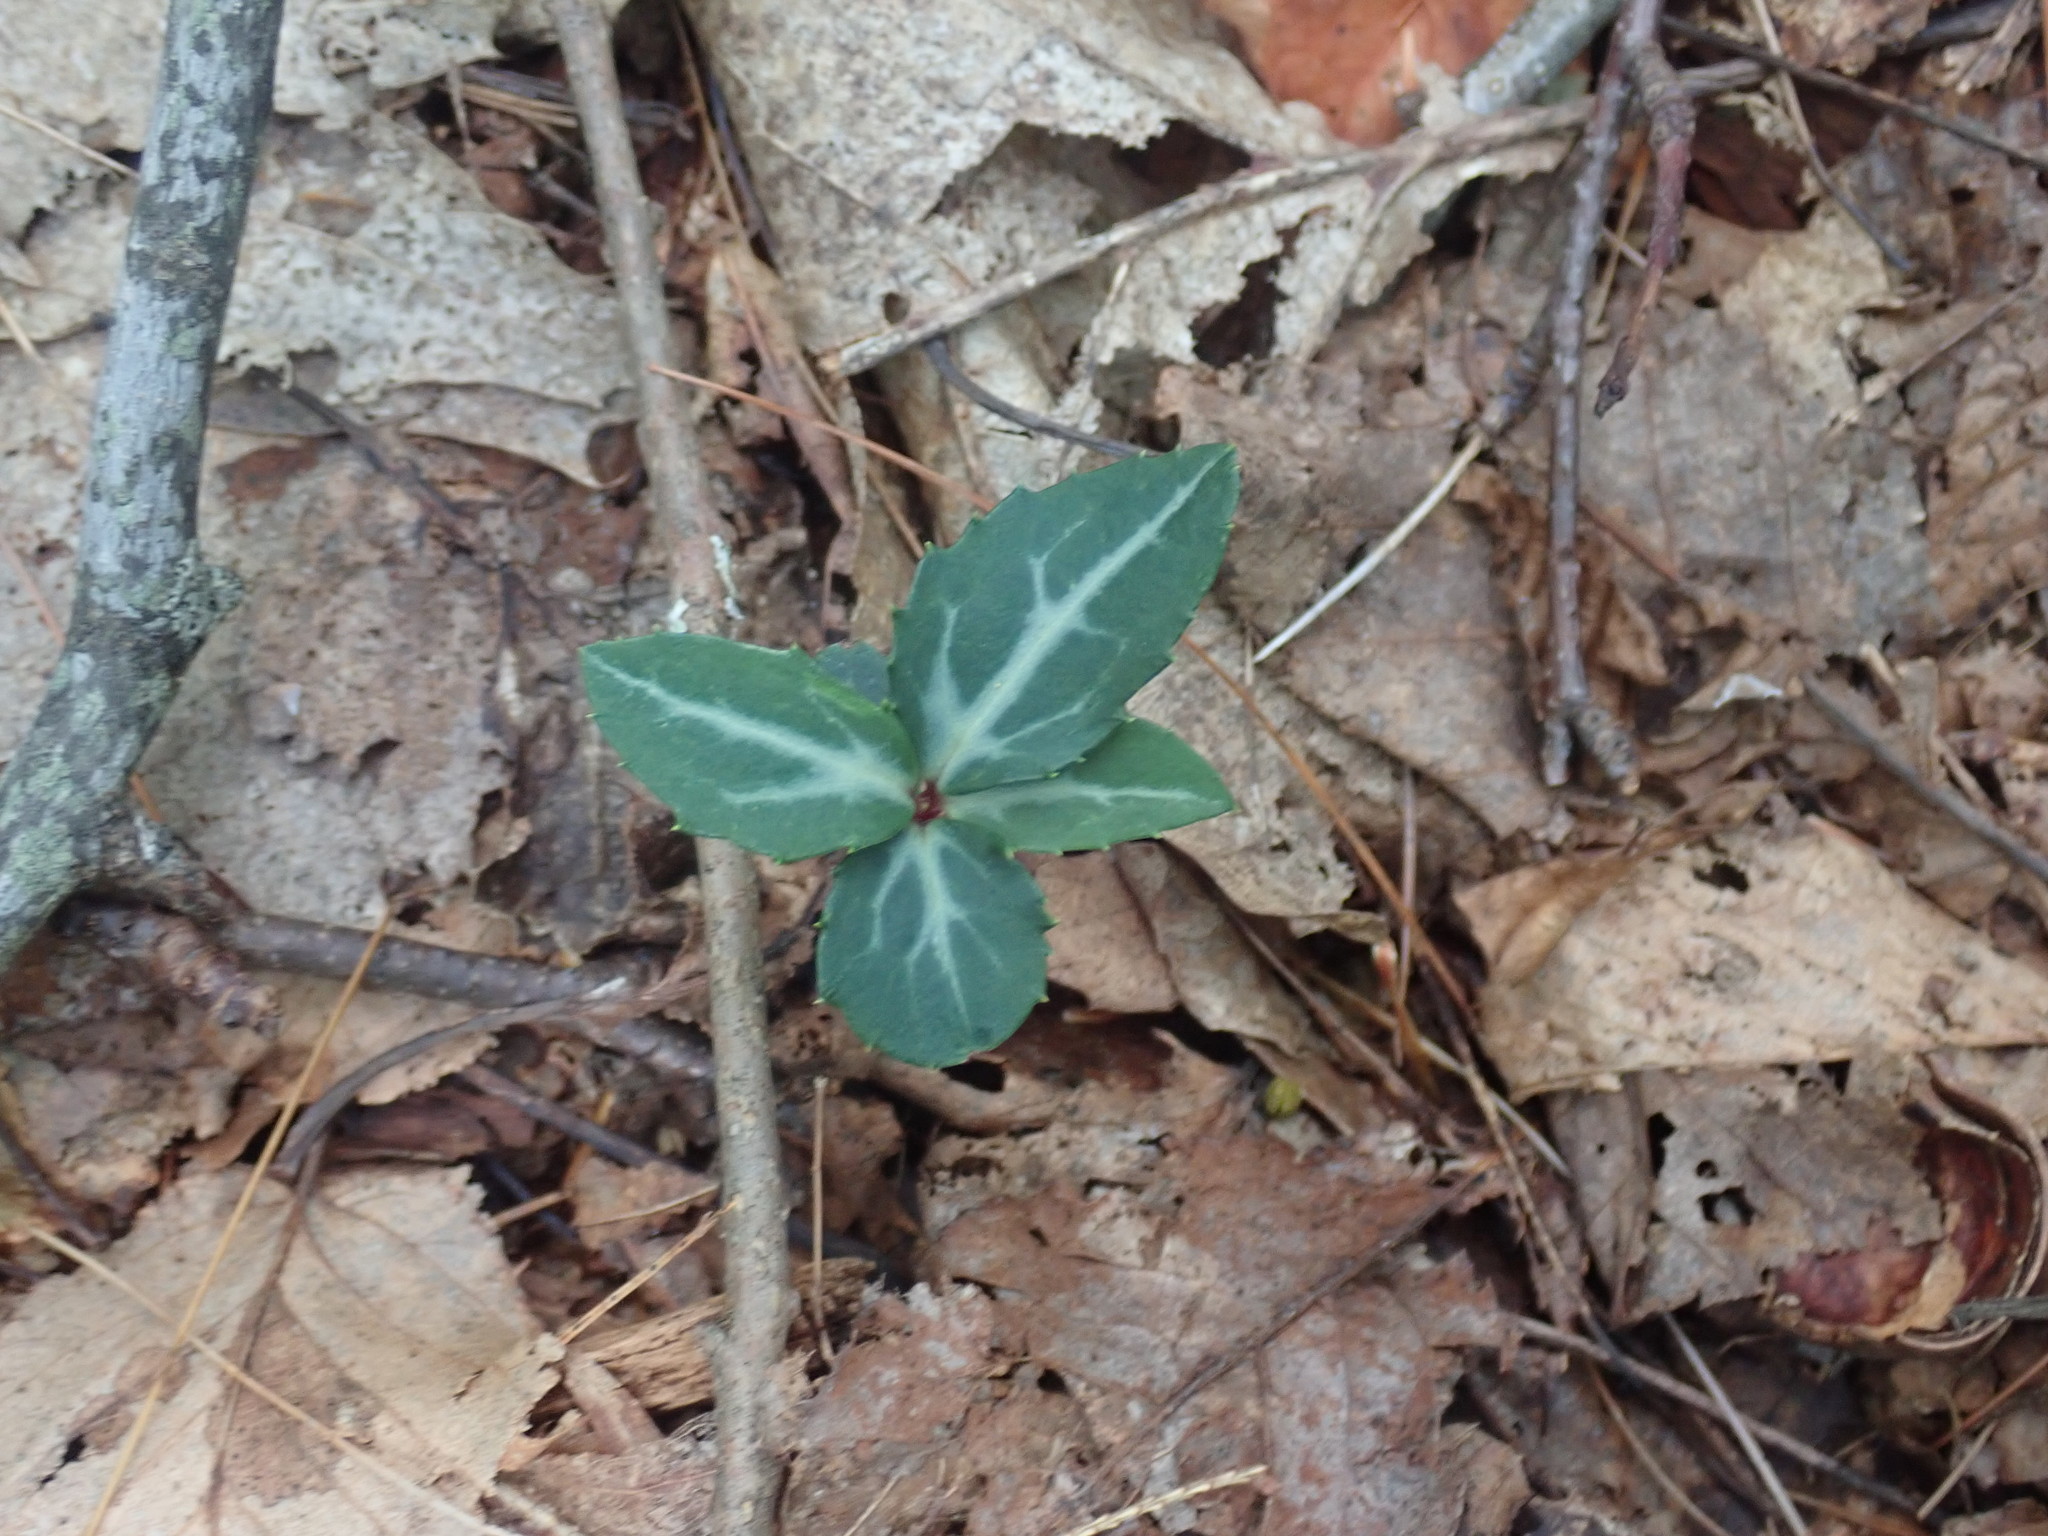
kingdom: Plantae
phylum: Tracheophyta
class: Magnoliopsida
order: Ericales
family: Ericaceae
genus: Chimaphila
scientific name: Chimaphila maculata
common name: Spotted pipsissewa
